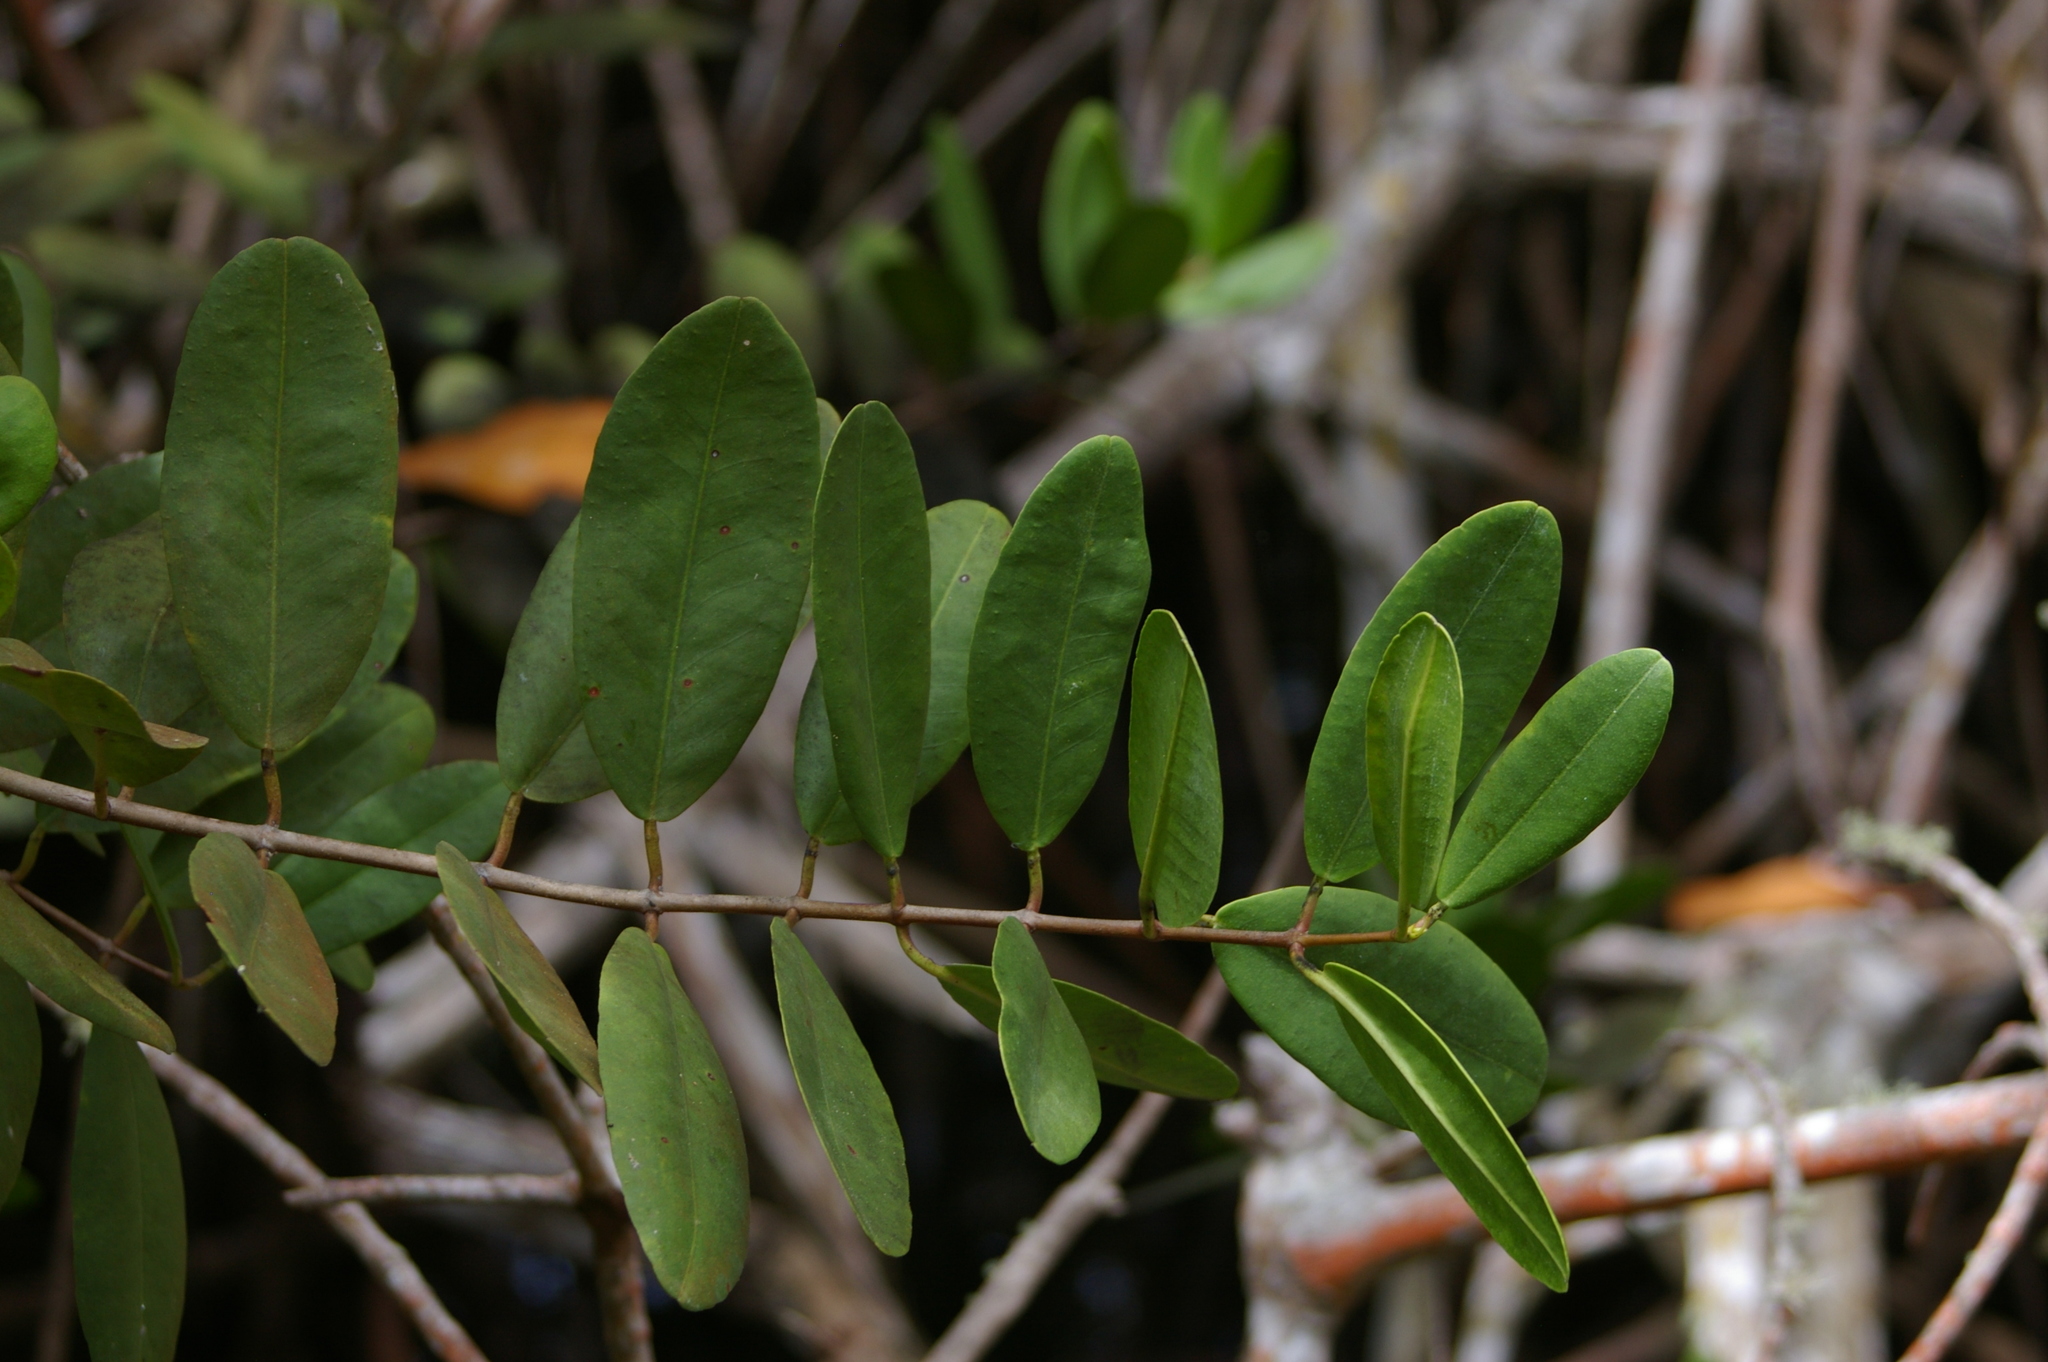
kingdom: Plantae
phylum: Tracheophyta
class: Magnoliopsida
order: Myrtales
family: Combretaceae
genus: Laguncularia
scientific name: Laguncularia racemosa
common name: White mangrove
